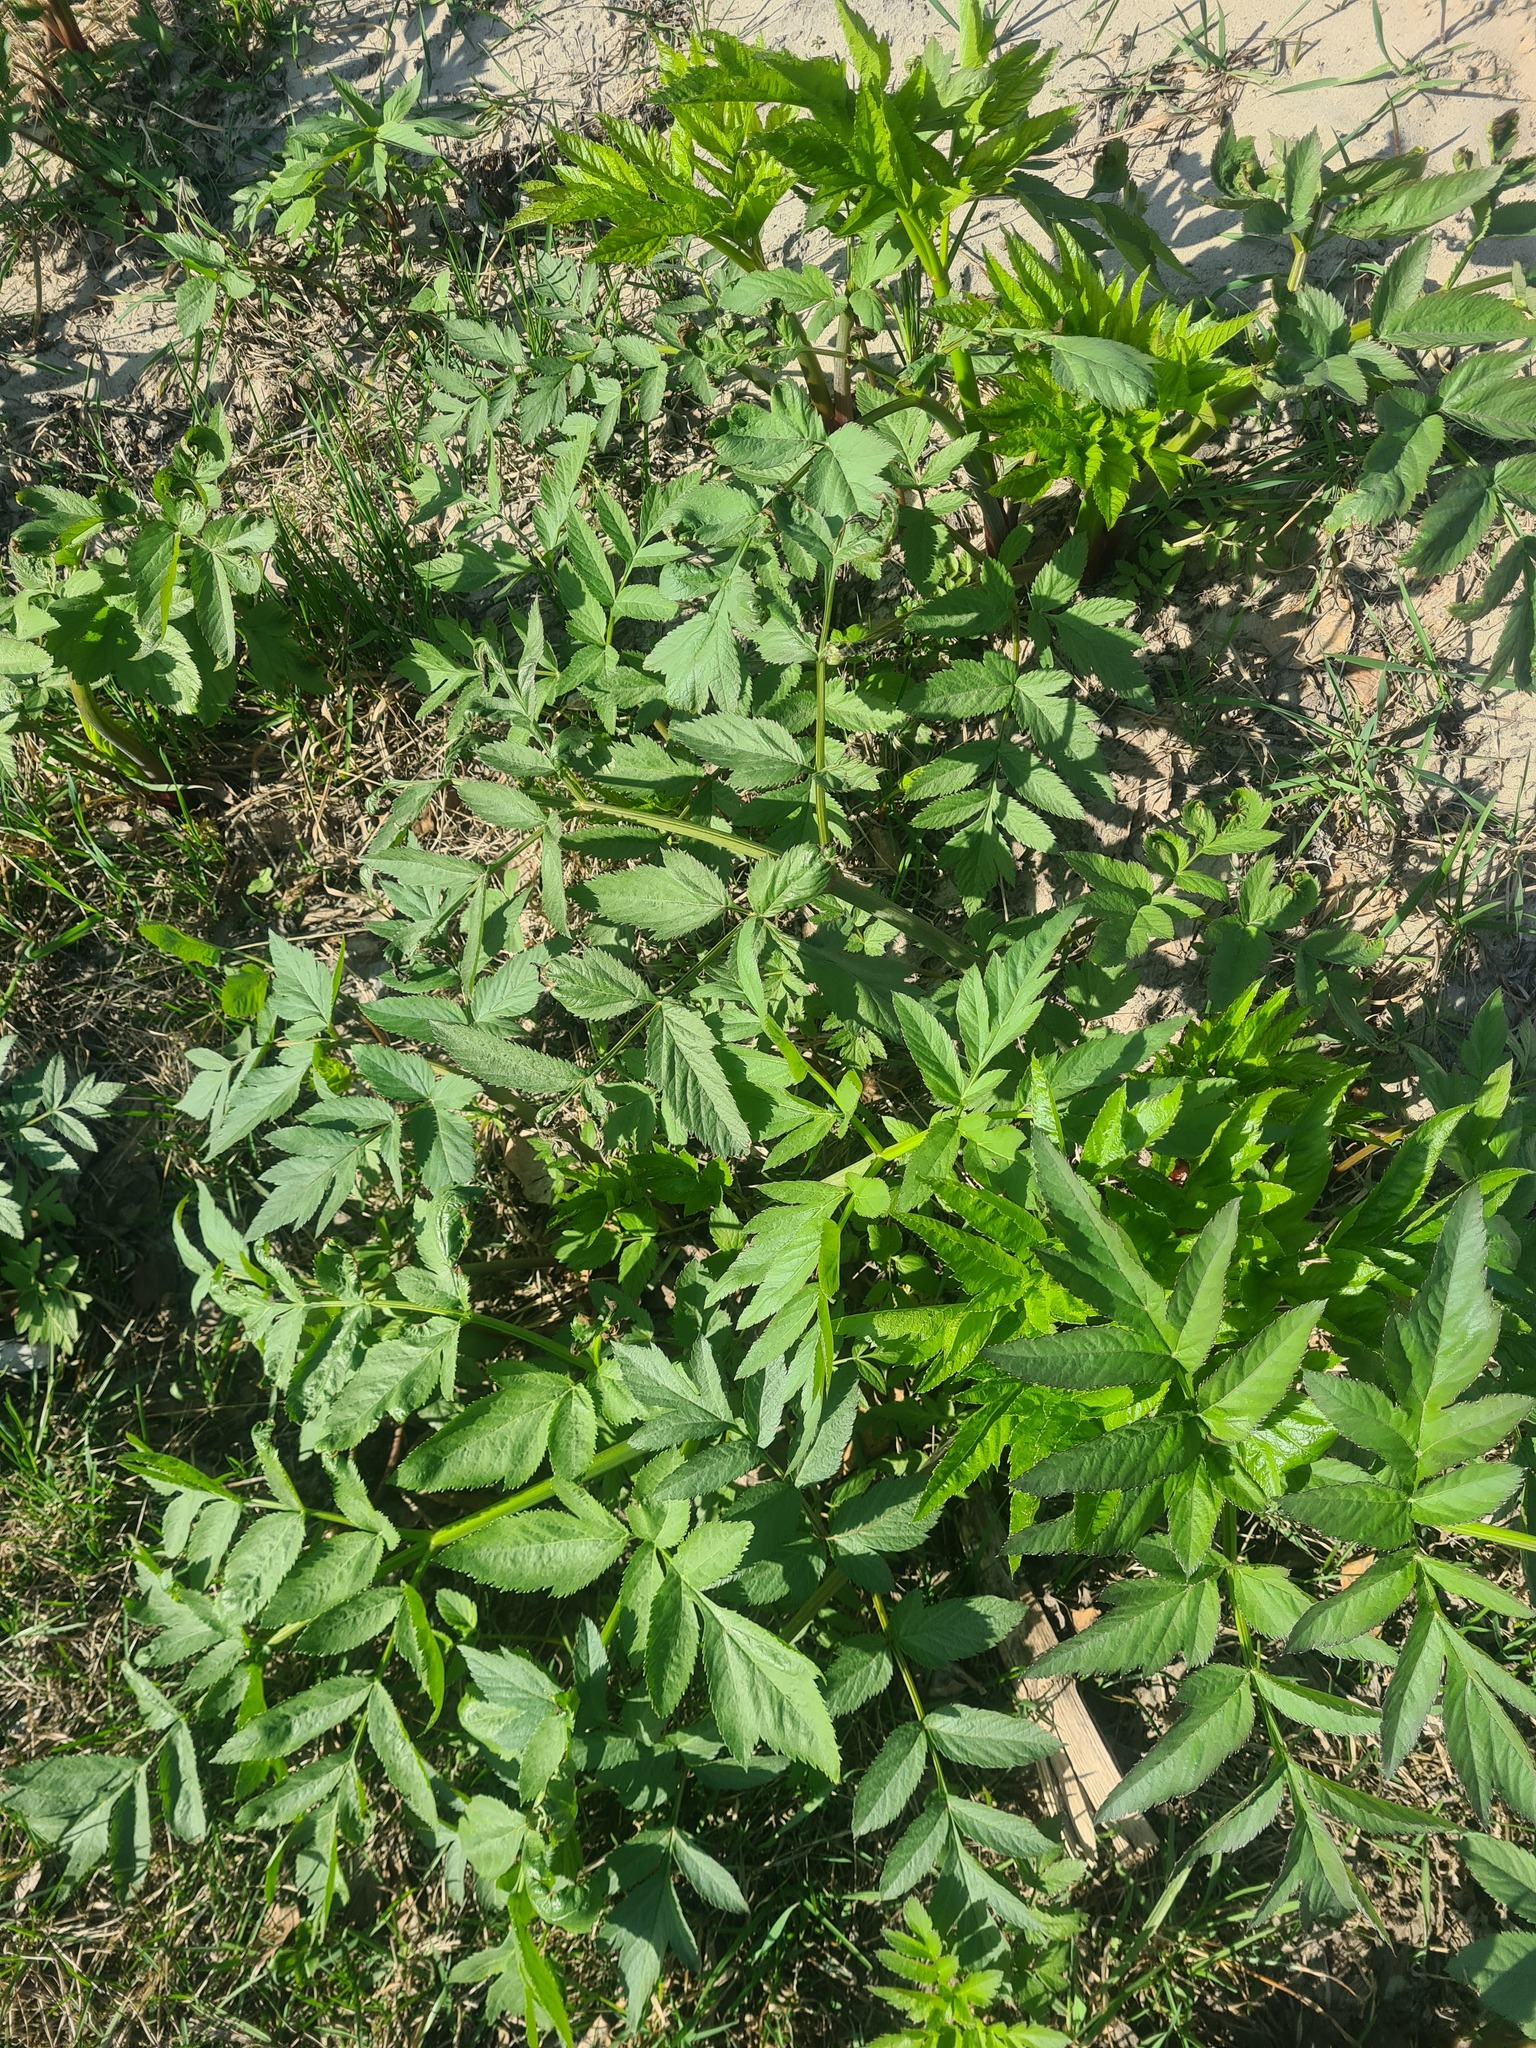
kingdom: Plantae
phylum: Tracheophyta
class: Magnoliopsida
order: Apiales
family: Apiaceae
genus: Angelica
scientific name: Angelica decurrens
